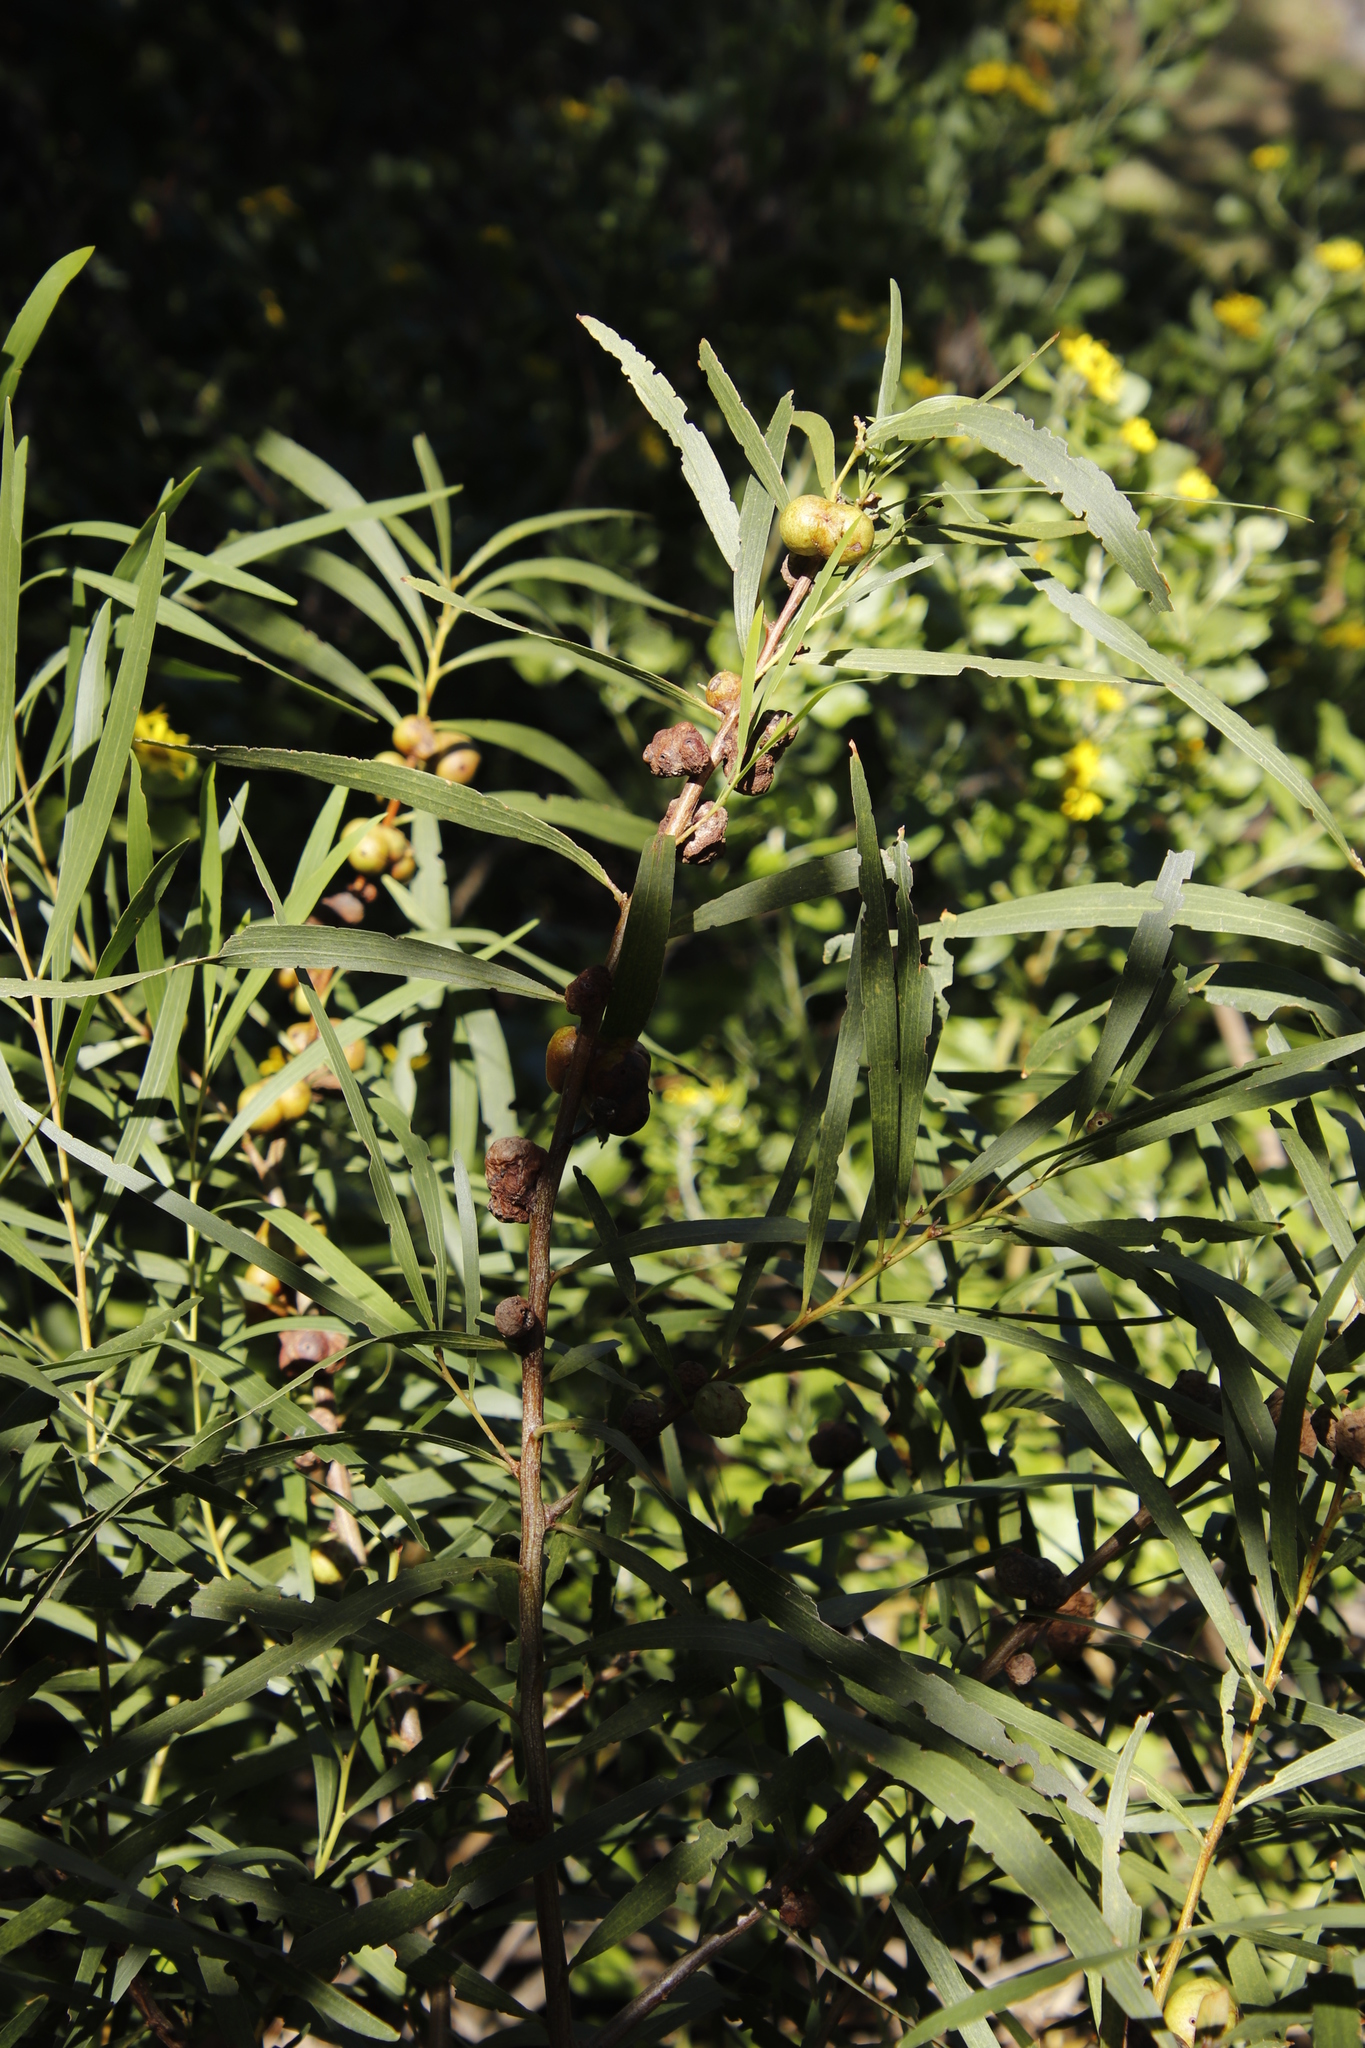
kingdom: Plantae
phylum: Tracheophyta
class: Magnoliopsida
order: Fabales
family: Fabaceae
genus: Acacia
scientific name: Acacia longifolia
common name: Sydney golden wattle
